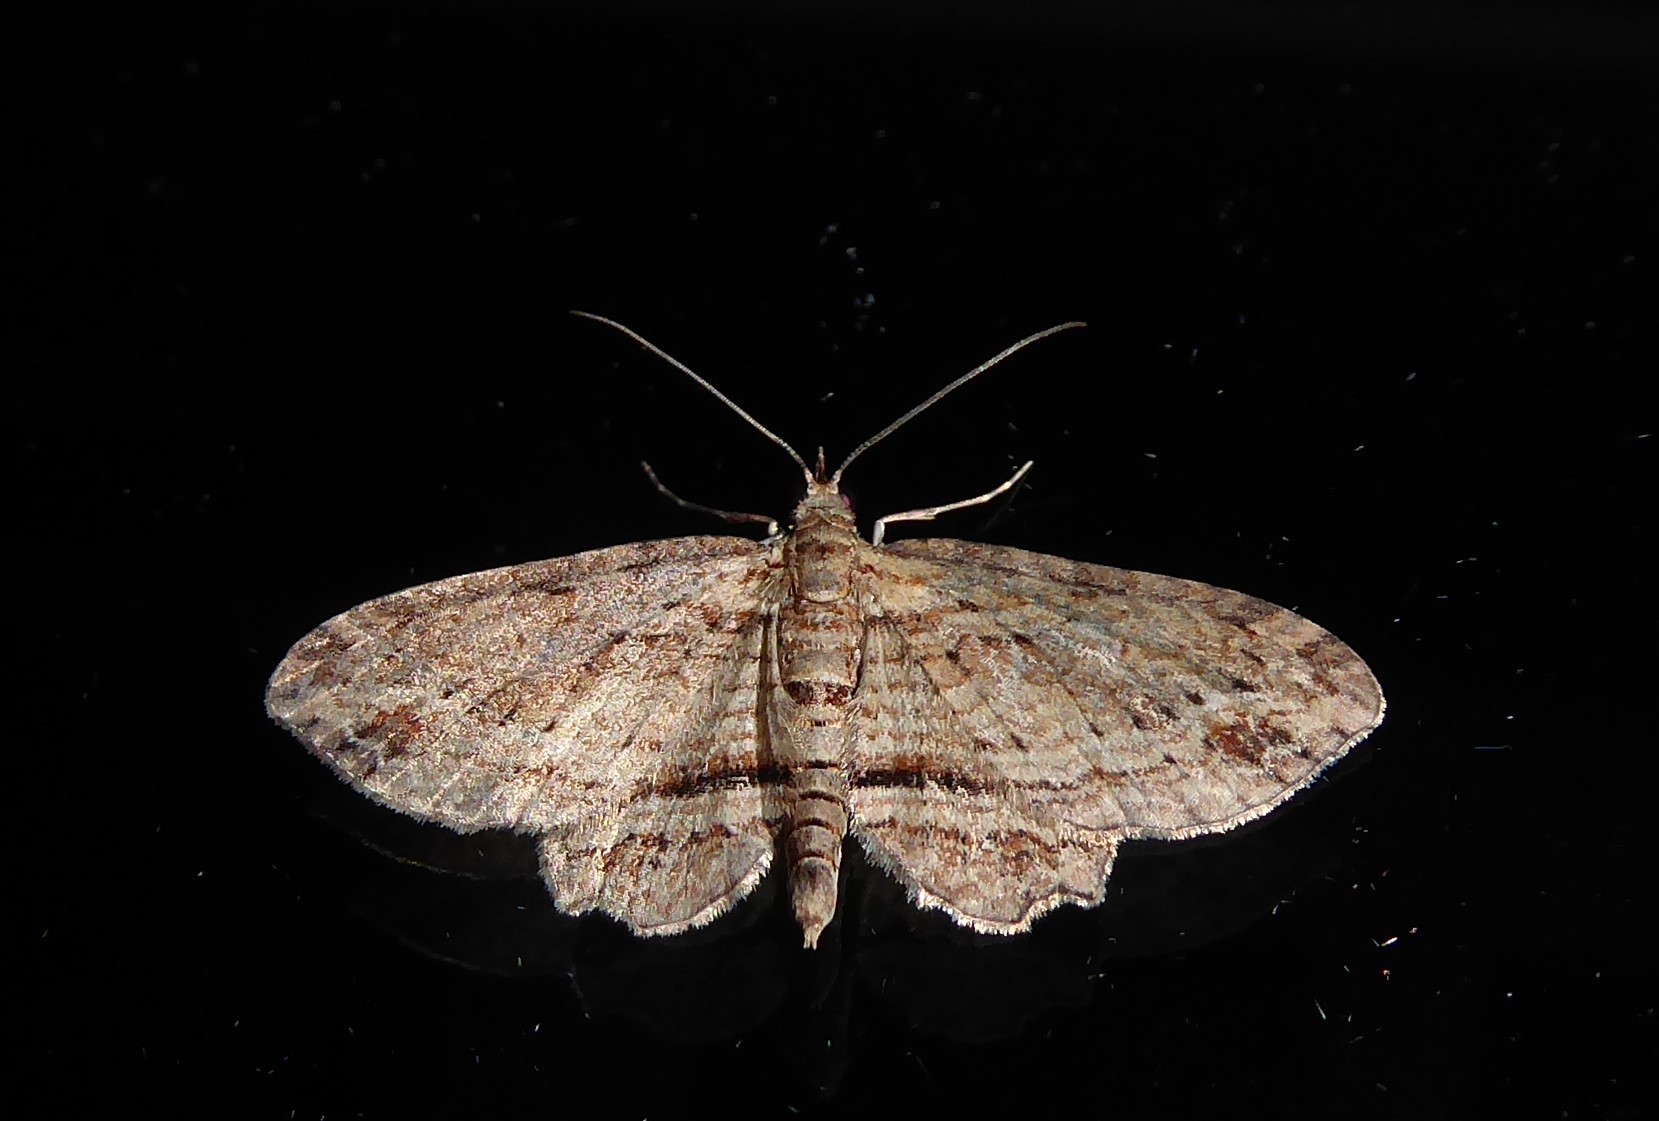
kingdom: Animalia
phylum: Arthropoda
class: Insecta
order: Lepidoptera
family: Geometridae
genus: Chloroclystis
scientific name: Chloroclystis filata
